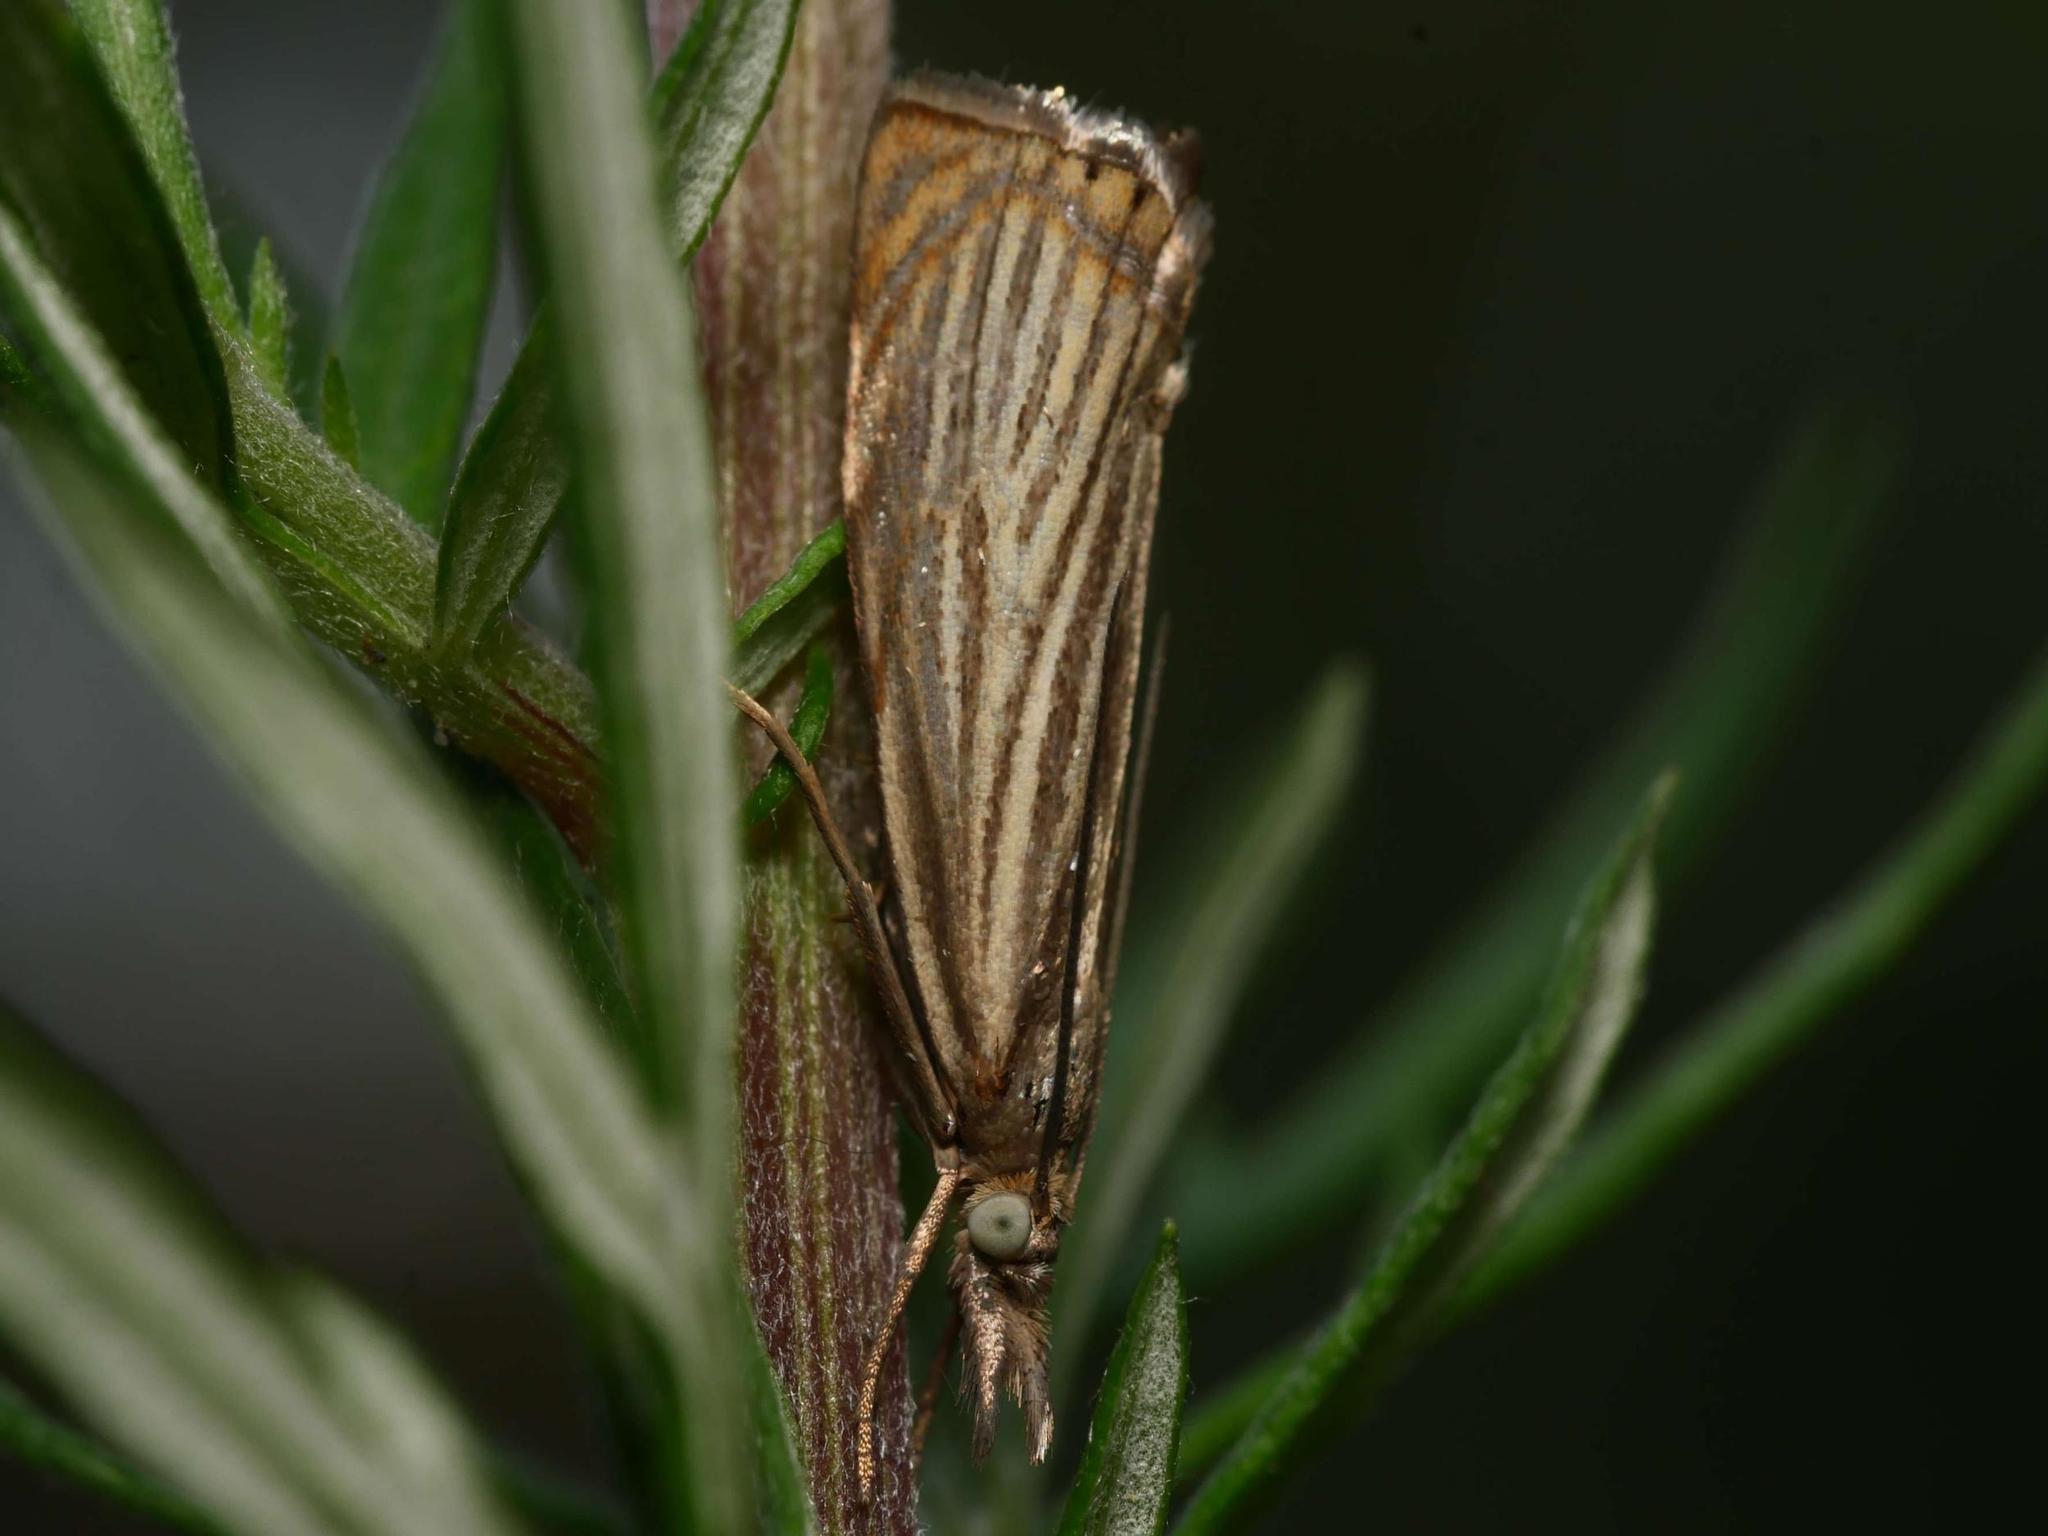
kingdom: Animalia
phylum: Arthropoda
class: Insecta
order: Lepidoptera
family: Crambidae
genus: Chrysoteuchia
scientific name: Chrysoteuchia culmella
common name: Garden grass-veneer
